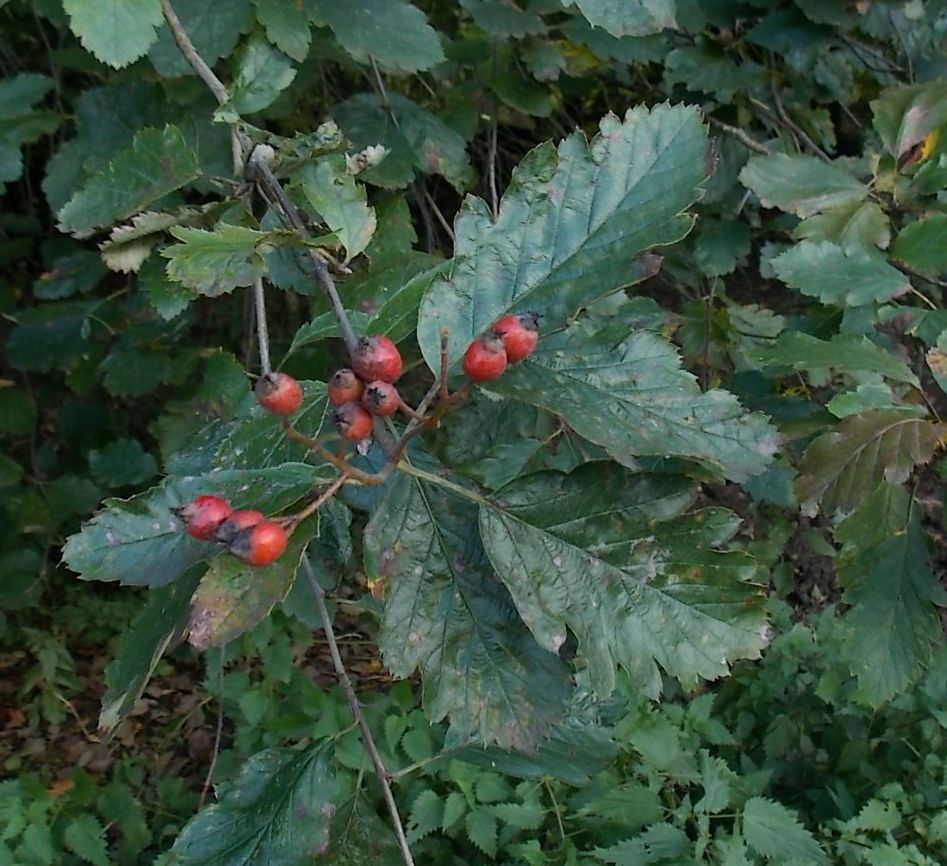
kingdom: Plantae
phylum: Tracheophyta
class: Magnoliopsida
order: Rosales
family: Rosaceae
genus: Scandosorbus
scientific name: Scandosorbus intermedia
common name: Swedish whitebeam
